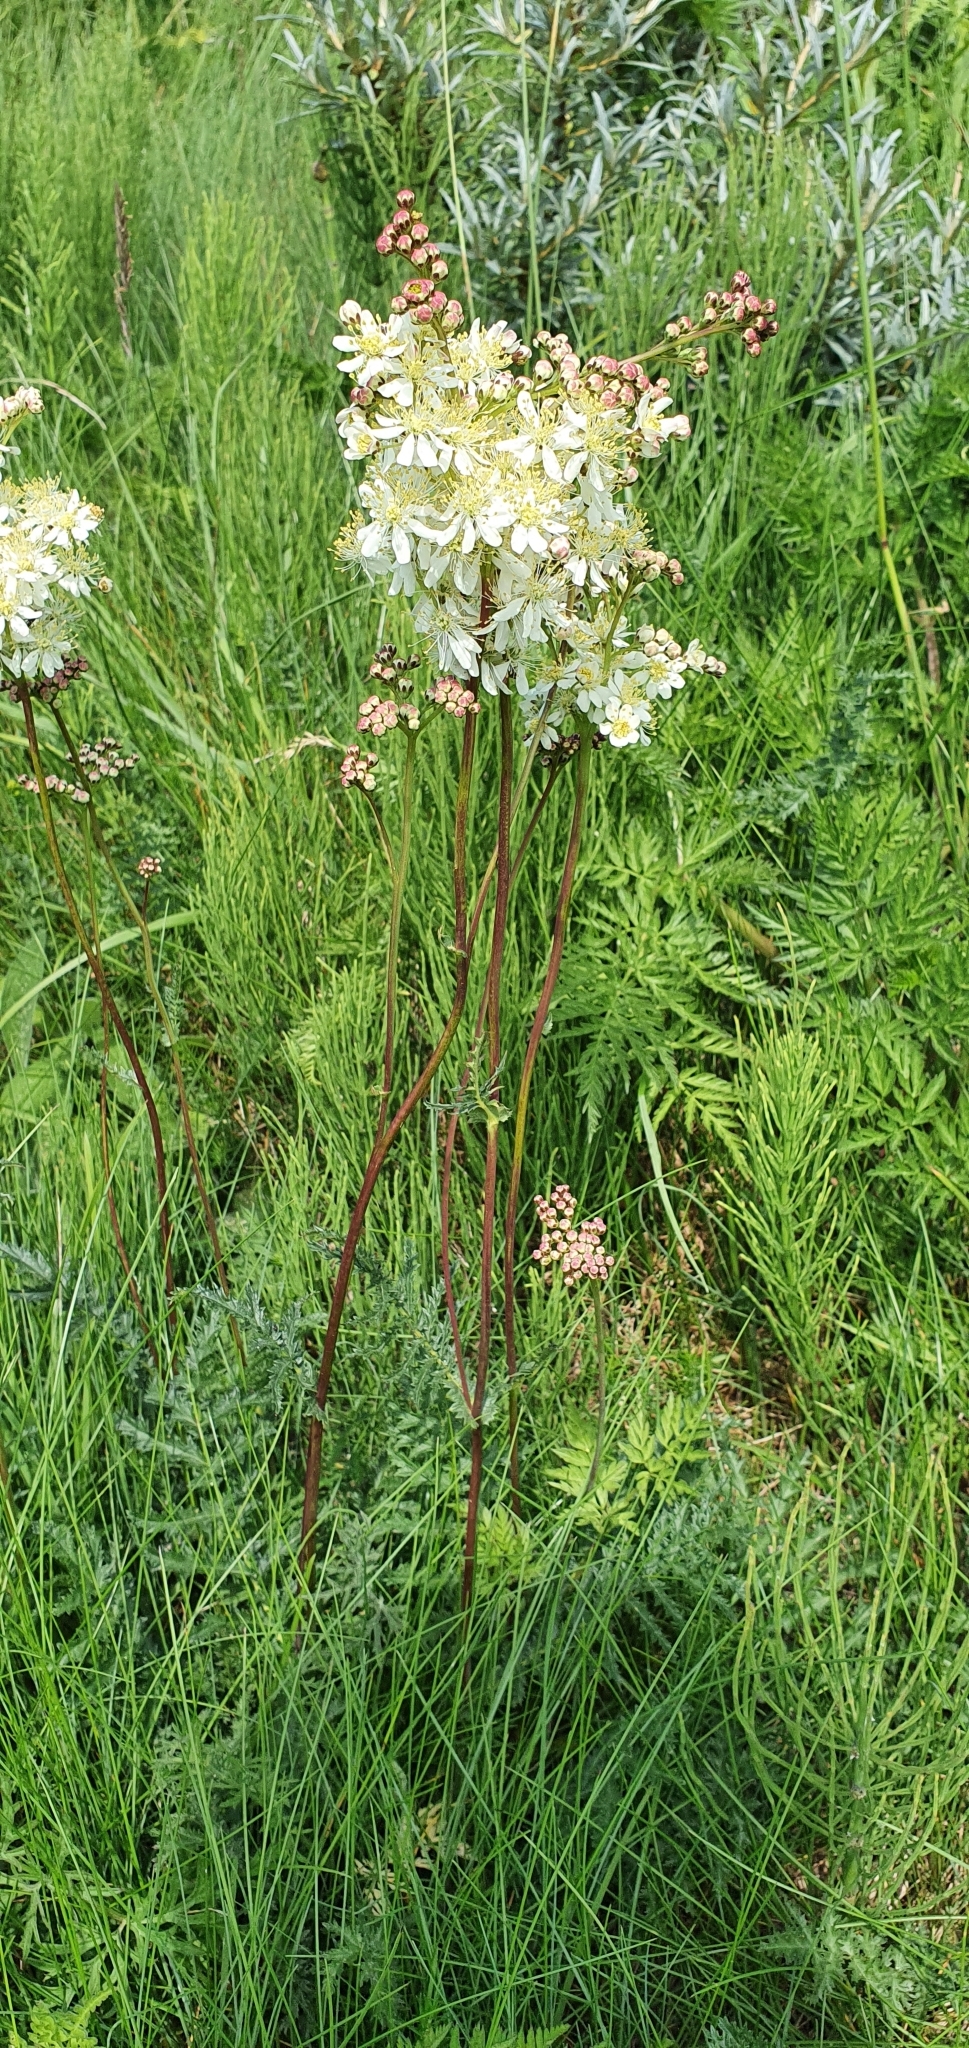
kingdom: Plantae
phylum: Tracheophyta
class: Magnoliopsida
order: Rosales
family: Rosaceae
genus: Filipendula
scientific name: Filipendula vulgaris
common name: Dropwort
